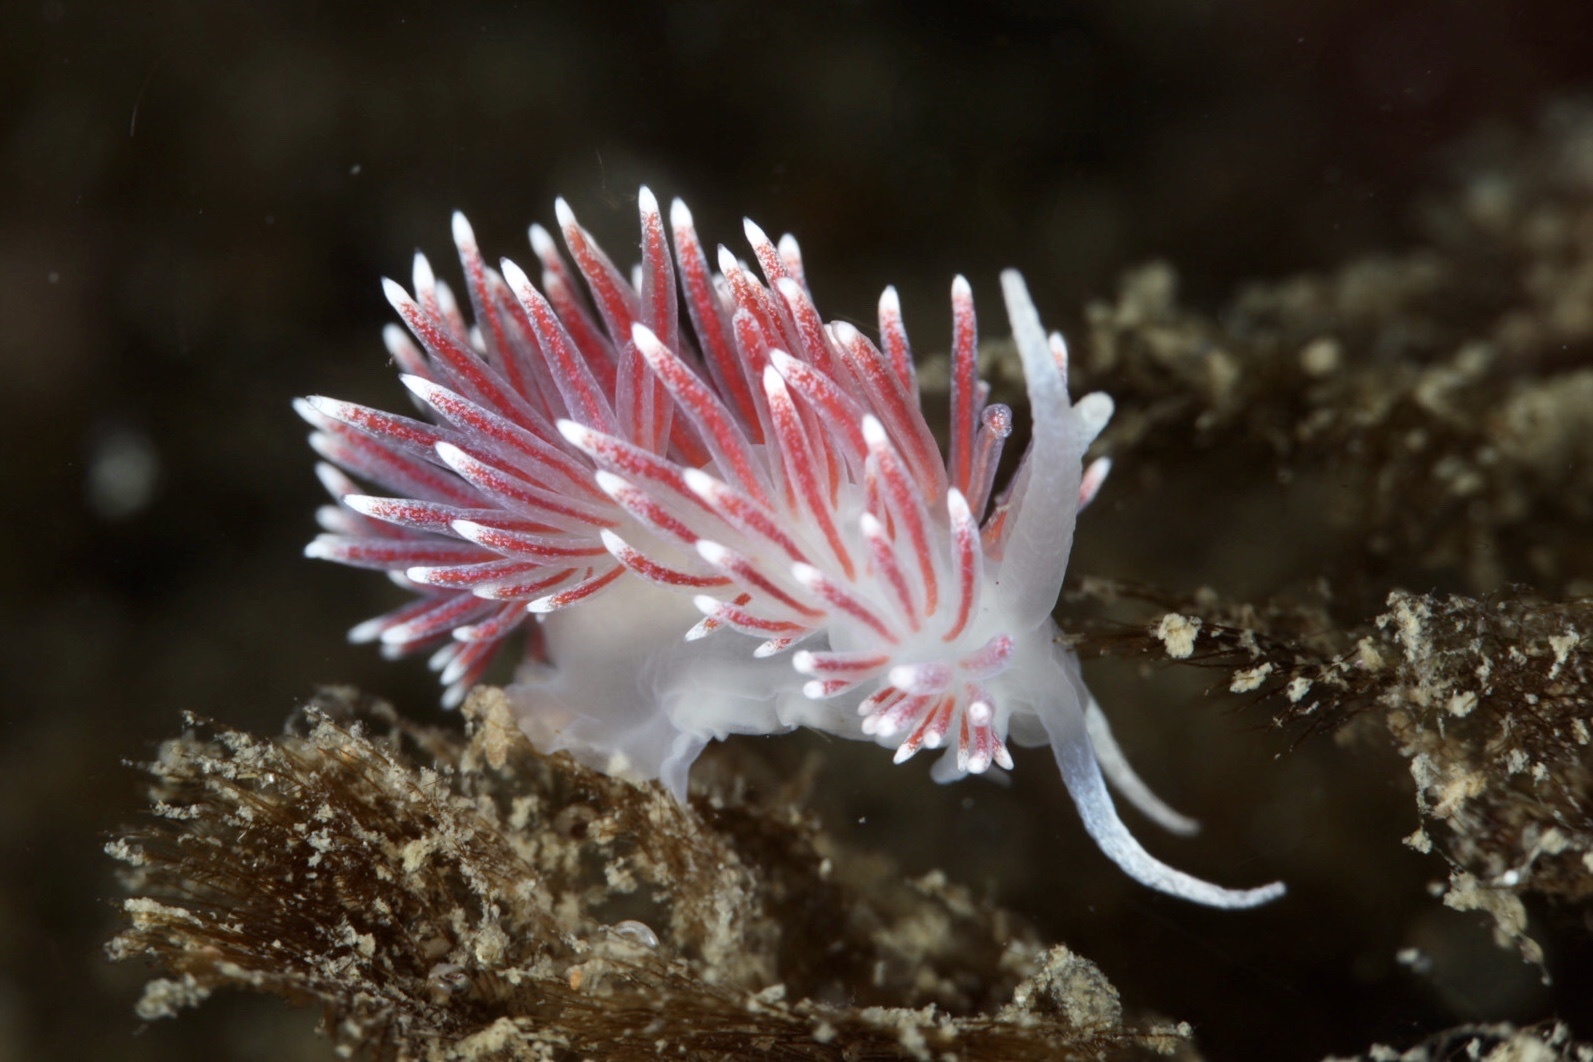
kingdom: Animalia
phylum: Mollusca
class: Gastropoda
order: Nudibranchia
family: Flabellinidae
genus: Carronella
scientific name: Carronella pellucida
